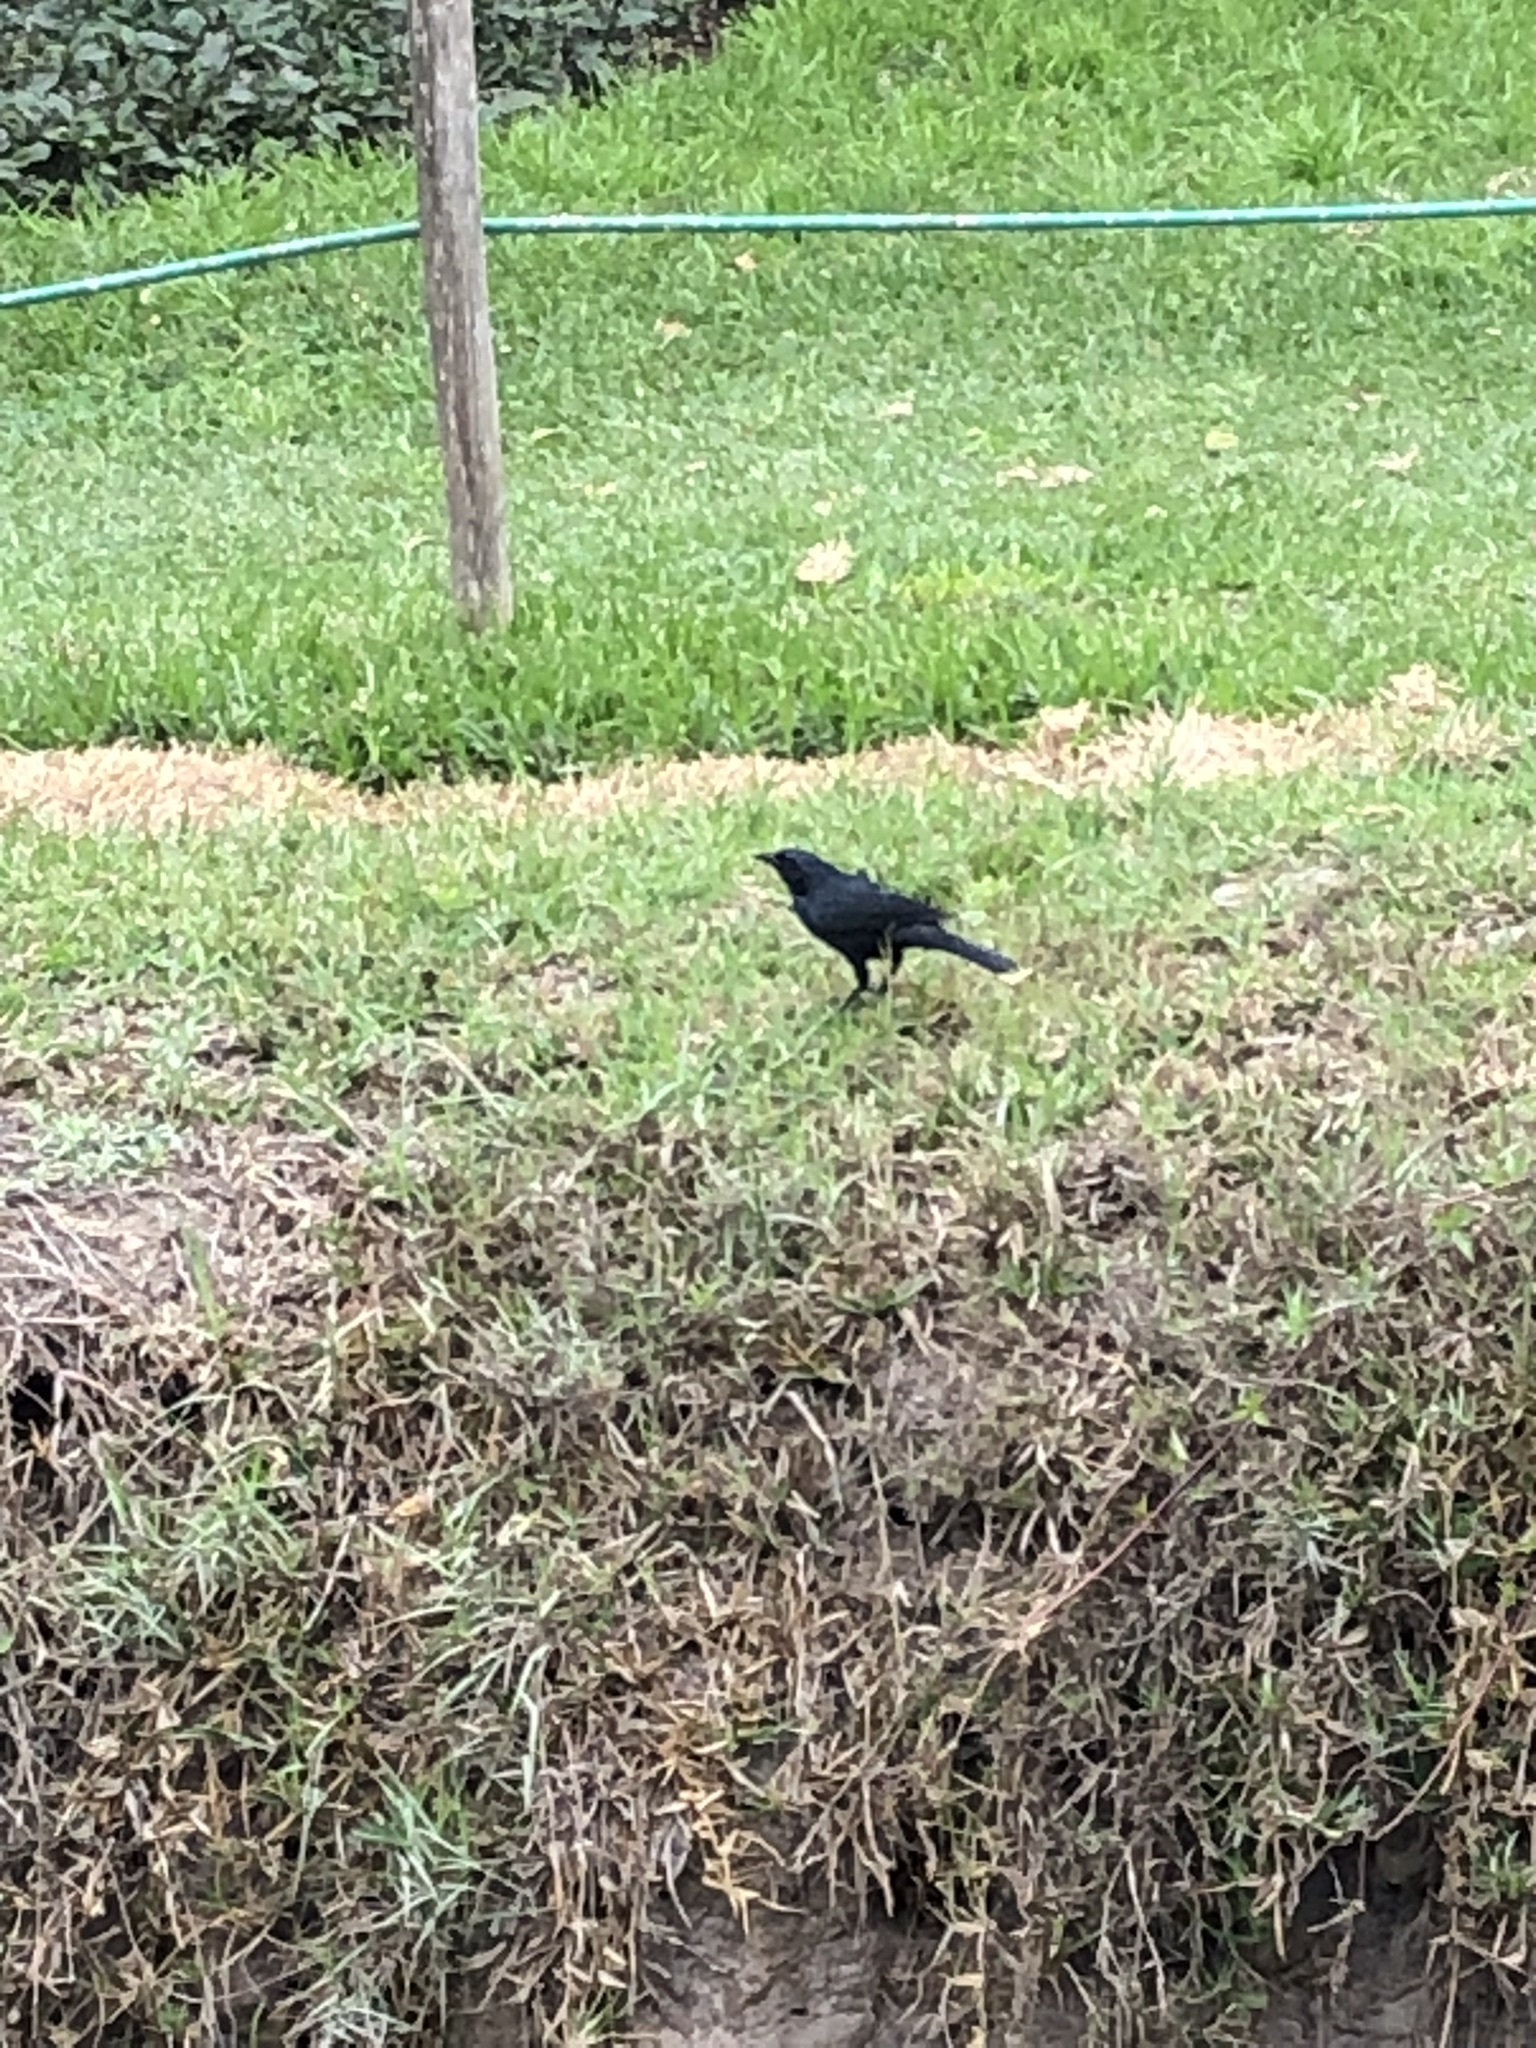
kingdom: Animalia
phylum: Chordata
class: Aves
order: Passeriformes
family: Icteridae
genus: Dives
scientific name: Dives warczewiczi
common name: Scrub blackbird
